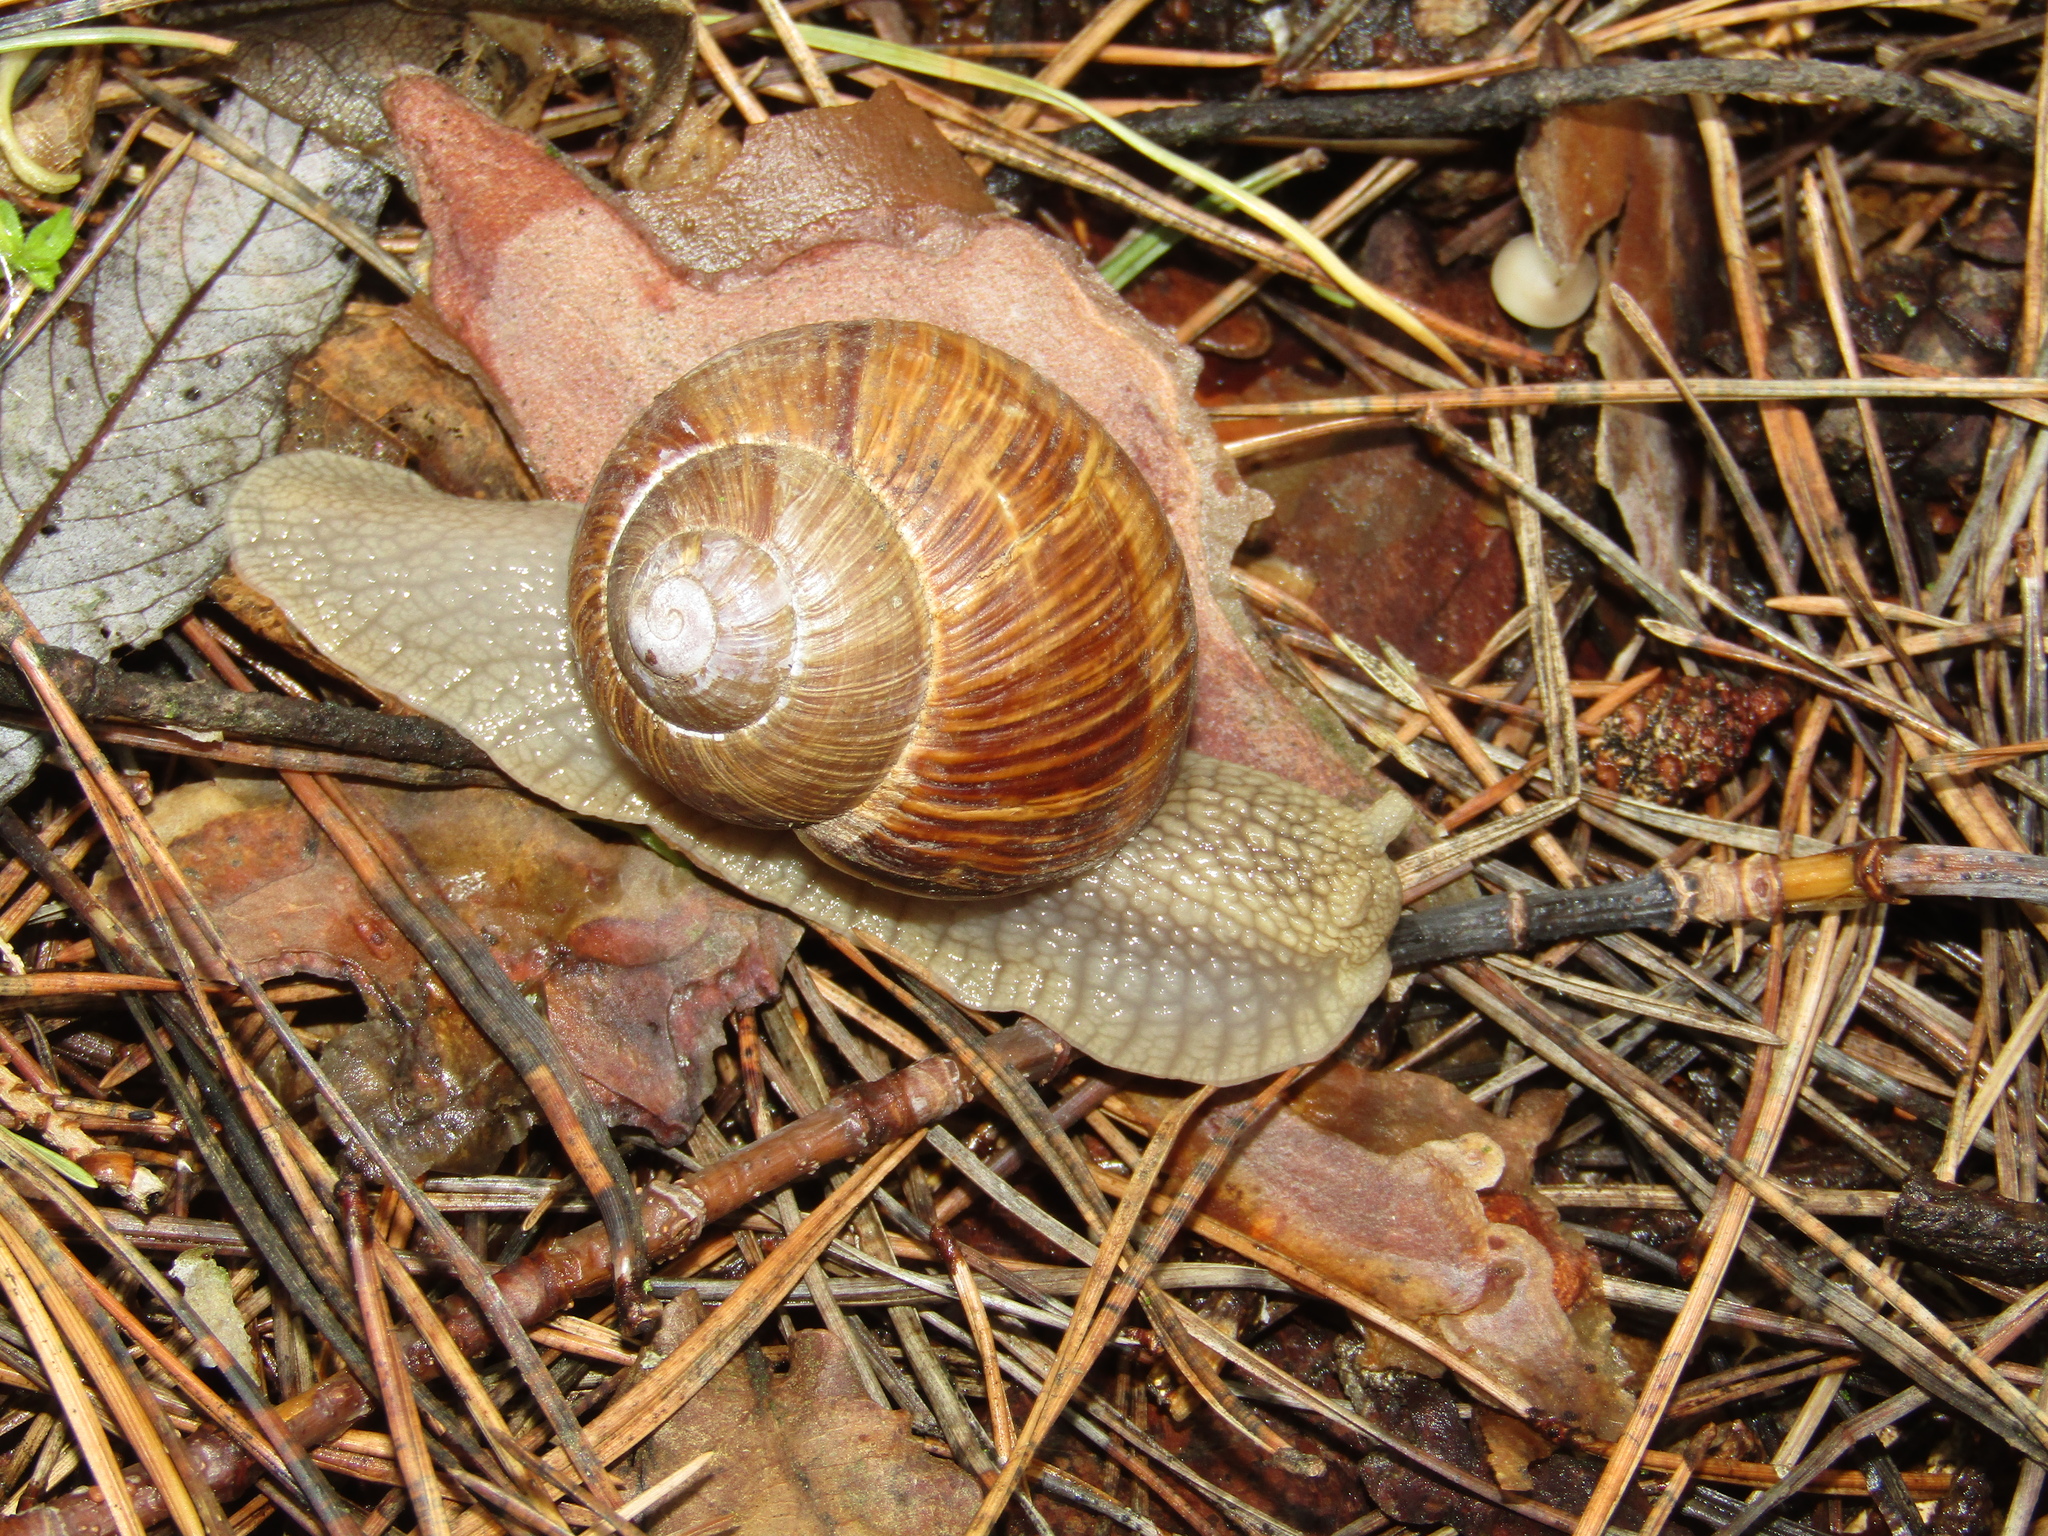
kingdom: Animalia
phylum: Mollusca
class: Gastropoda
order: Stylommatophora
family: Helicidae
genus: Helix
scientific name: Helix pomatia
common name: Roman snail
